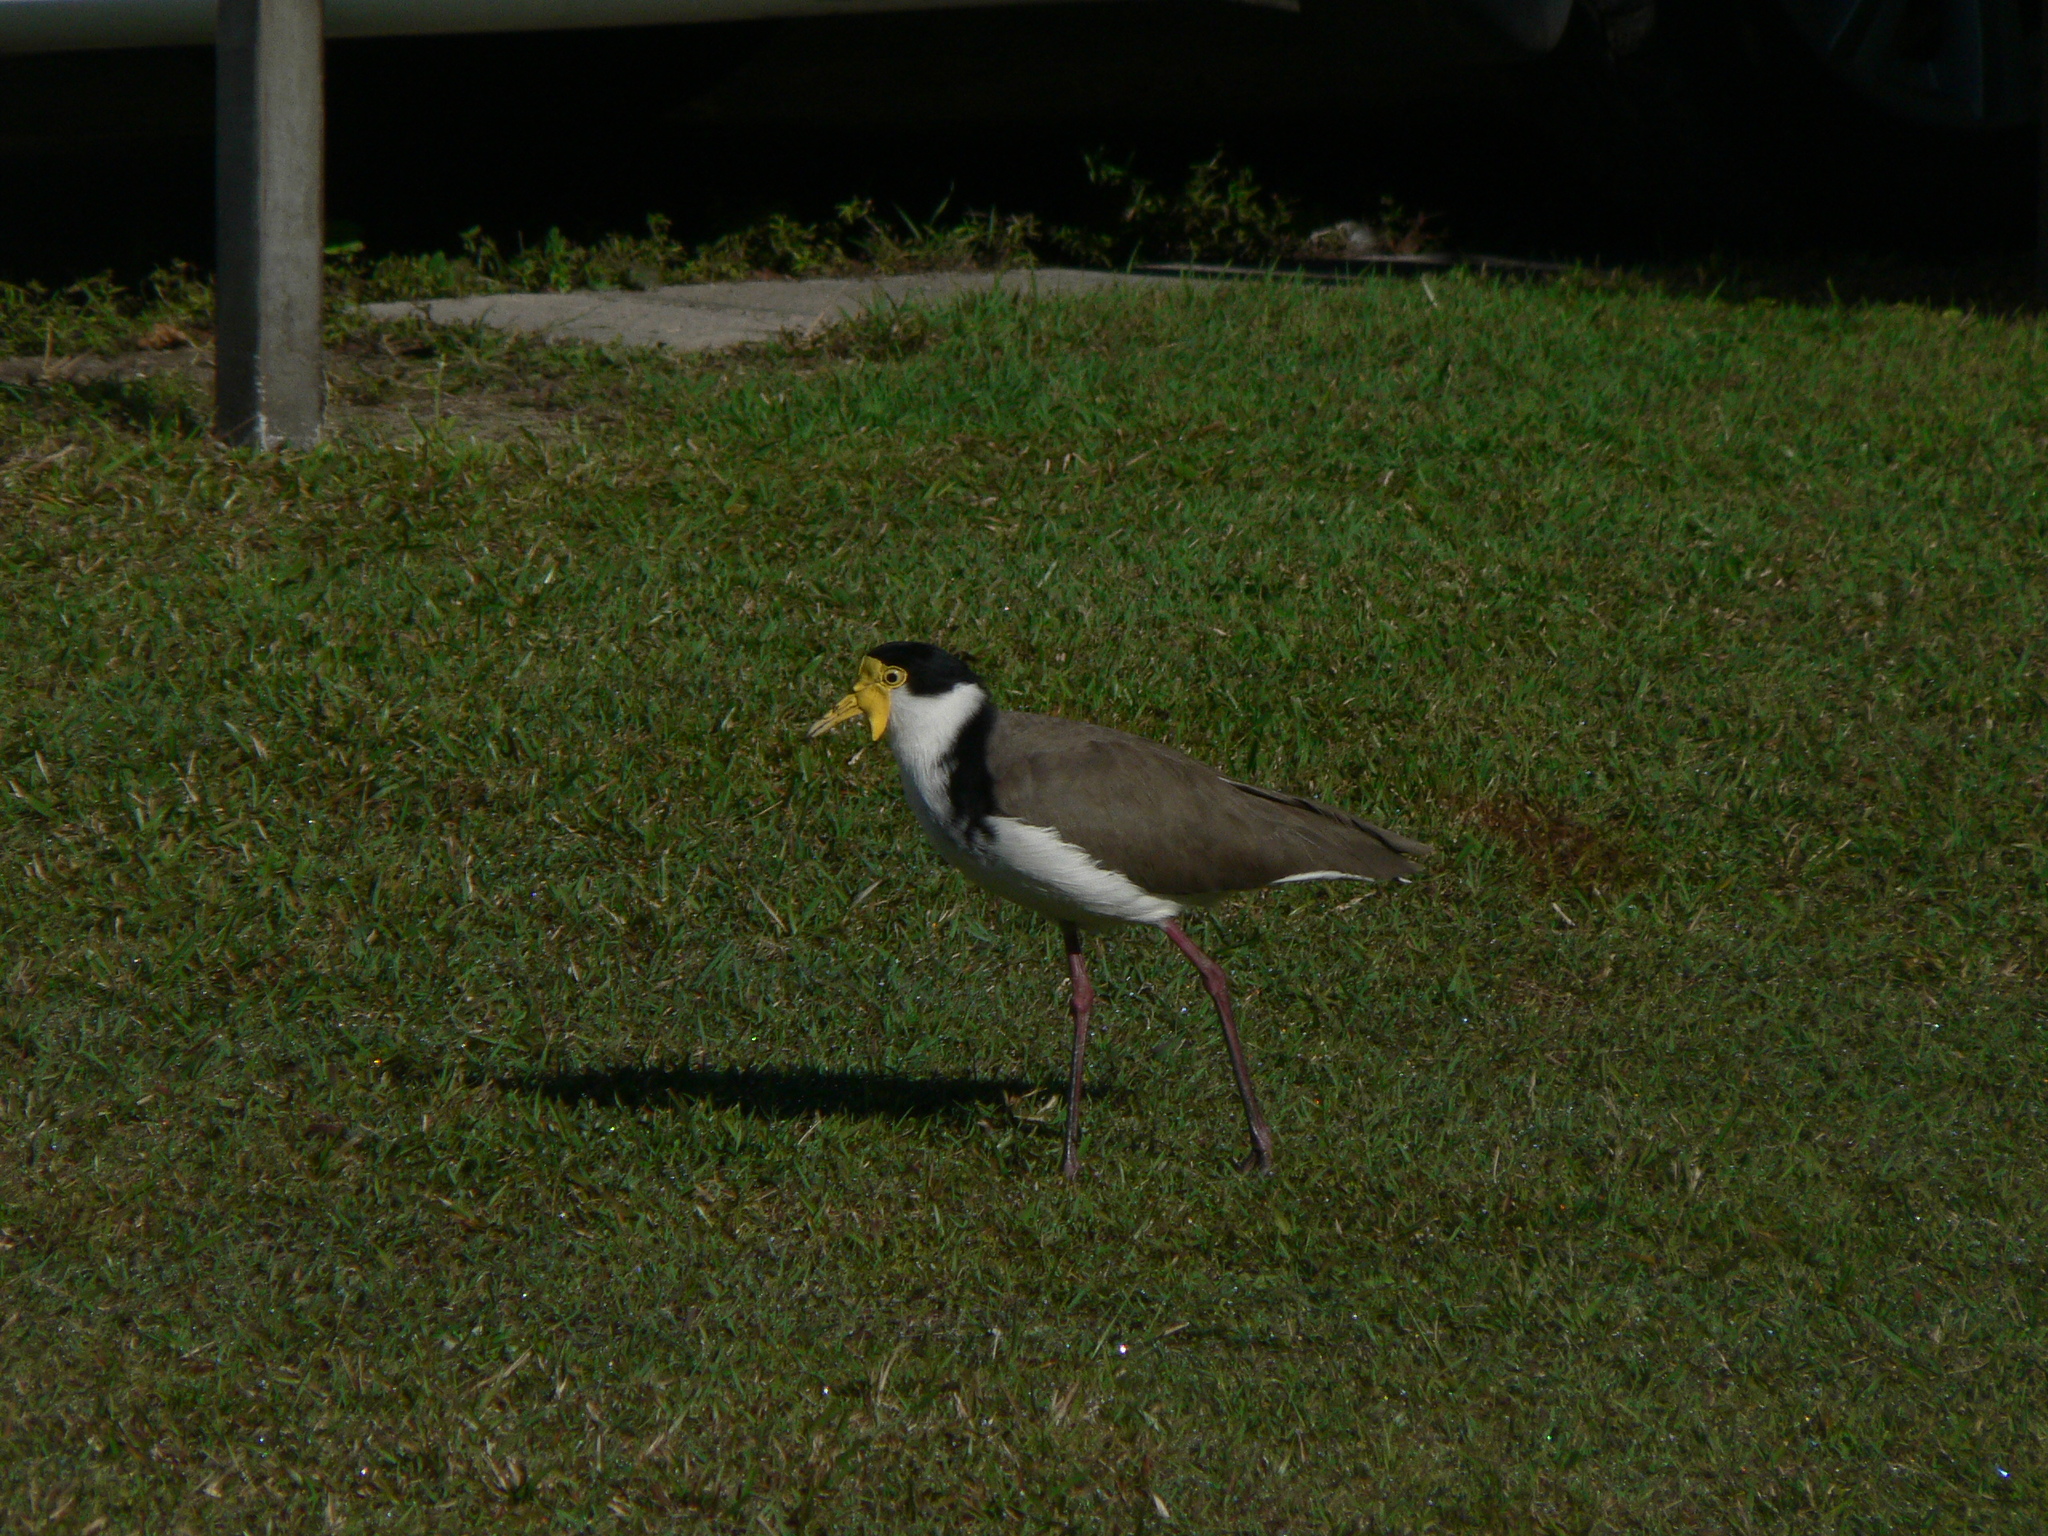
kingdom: Animalia
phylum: Chordata
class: Aves
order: Charadriiformes
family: Charadriidae
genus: Vanellus
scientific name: Vanellus miles
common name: Masked lapwing
